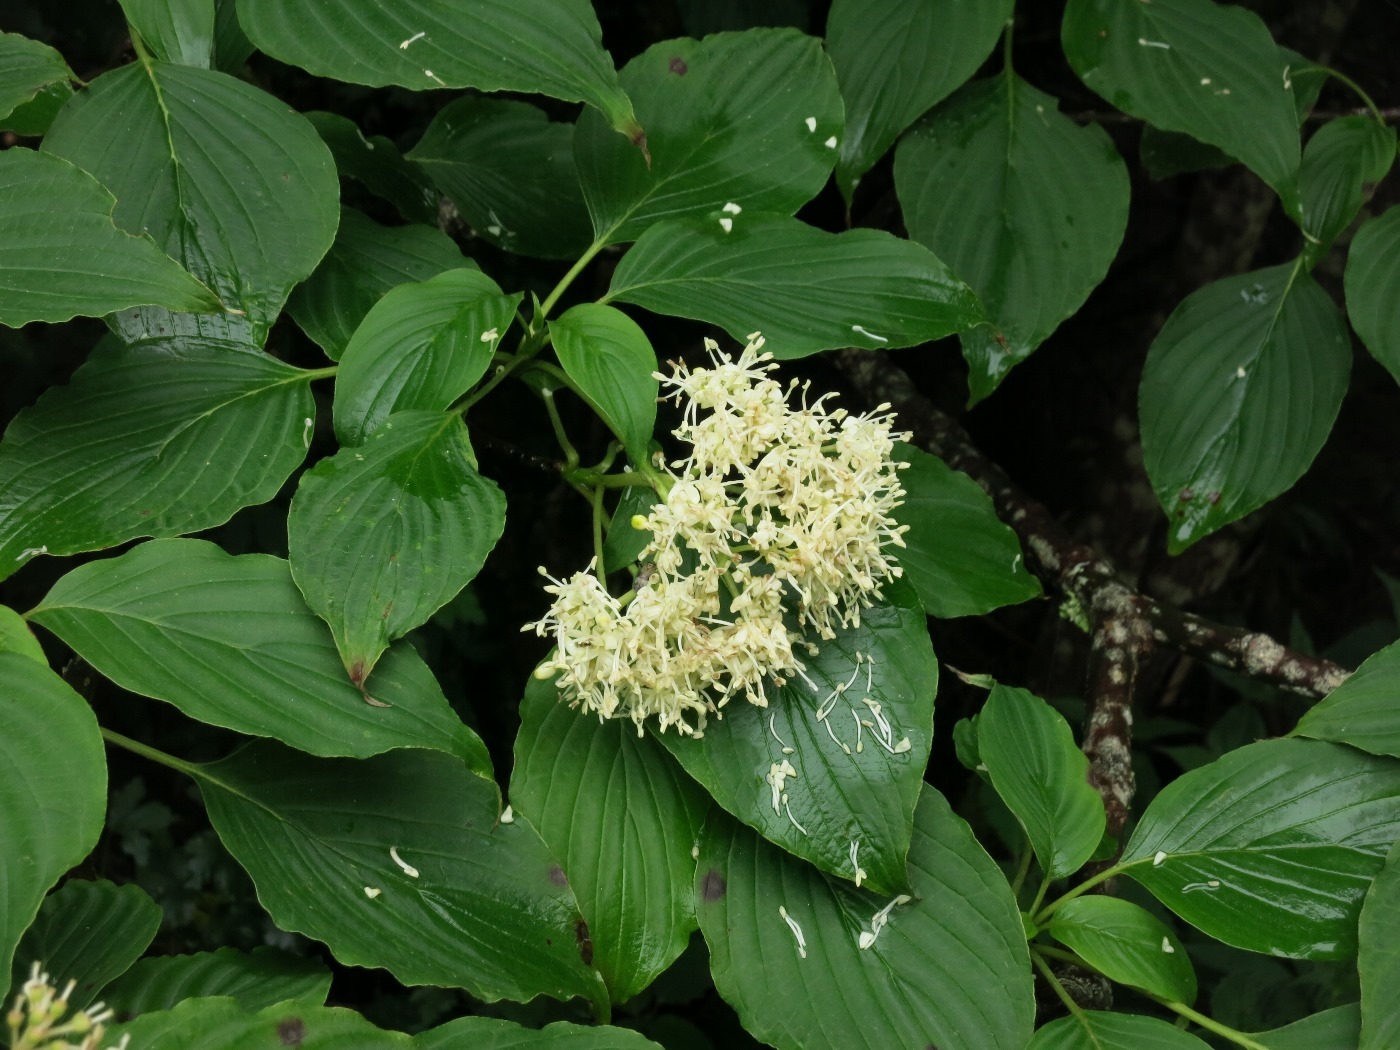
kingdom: Plantae
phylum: Tracheophyta
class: Magnoliopsida
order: Cornales
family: Cornaceae
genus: Cornus
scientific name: Cornus alternifolia
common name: Pagoda dogwood
